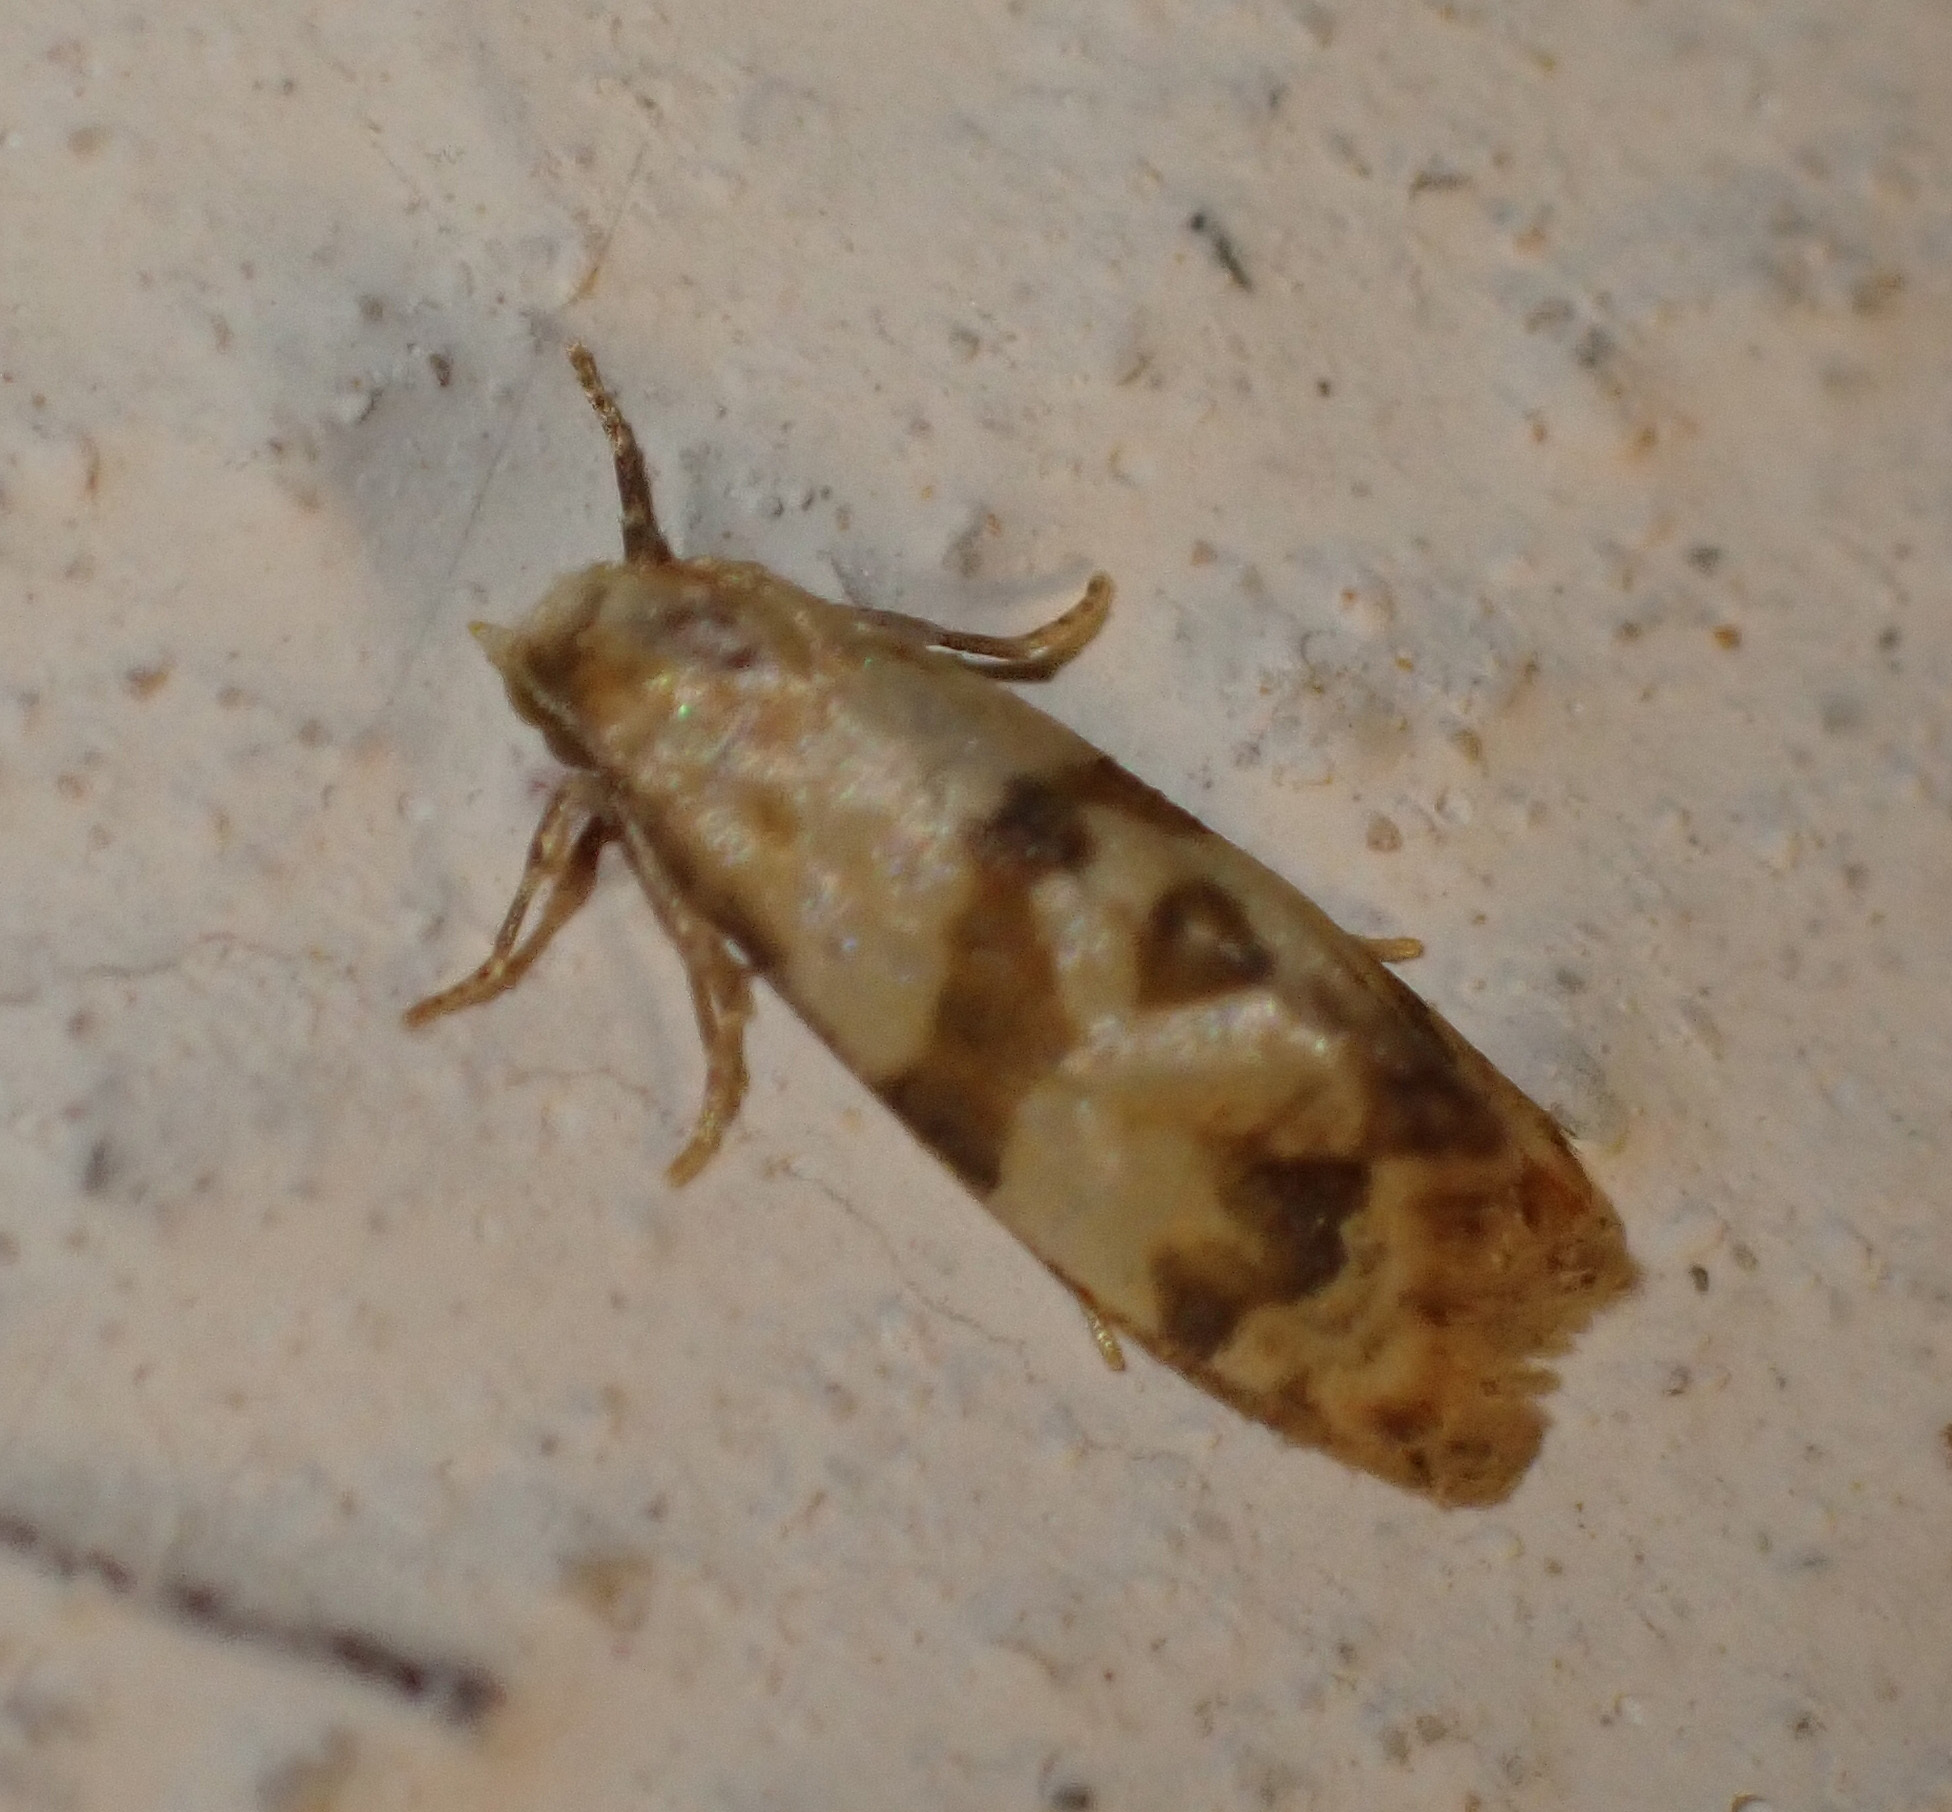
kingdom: Animalia
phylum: Arthropoda
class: Insecta
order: Lepidoptera
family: Tortricidae
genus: Phalonidia
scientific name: Phalonidia contractana
